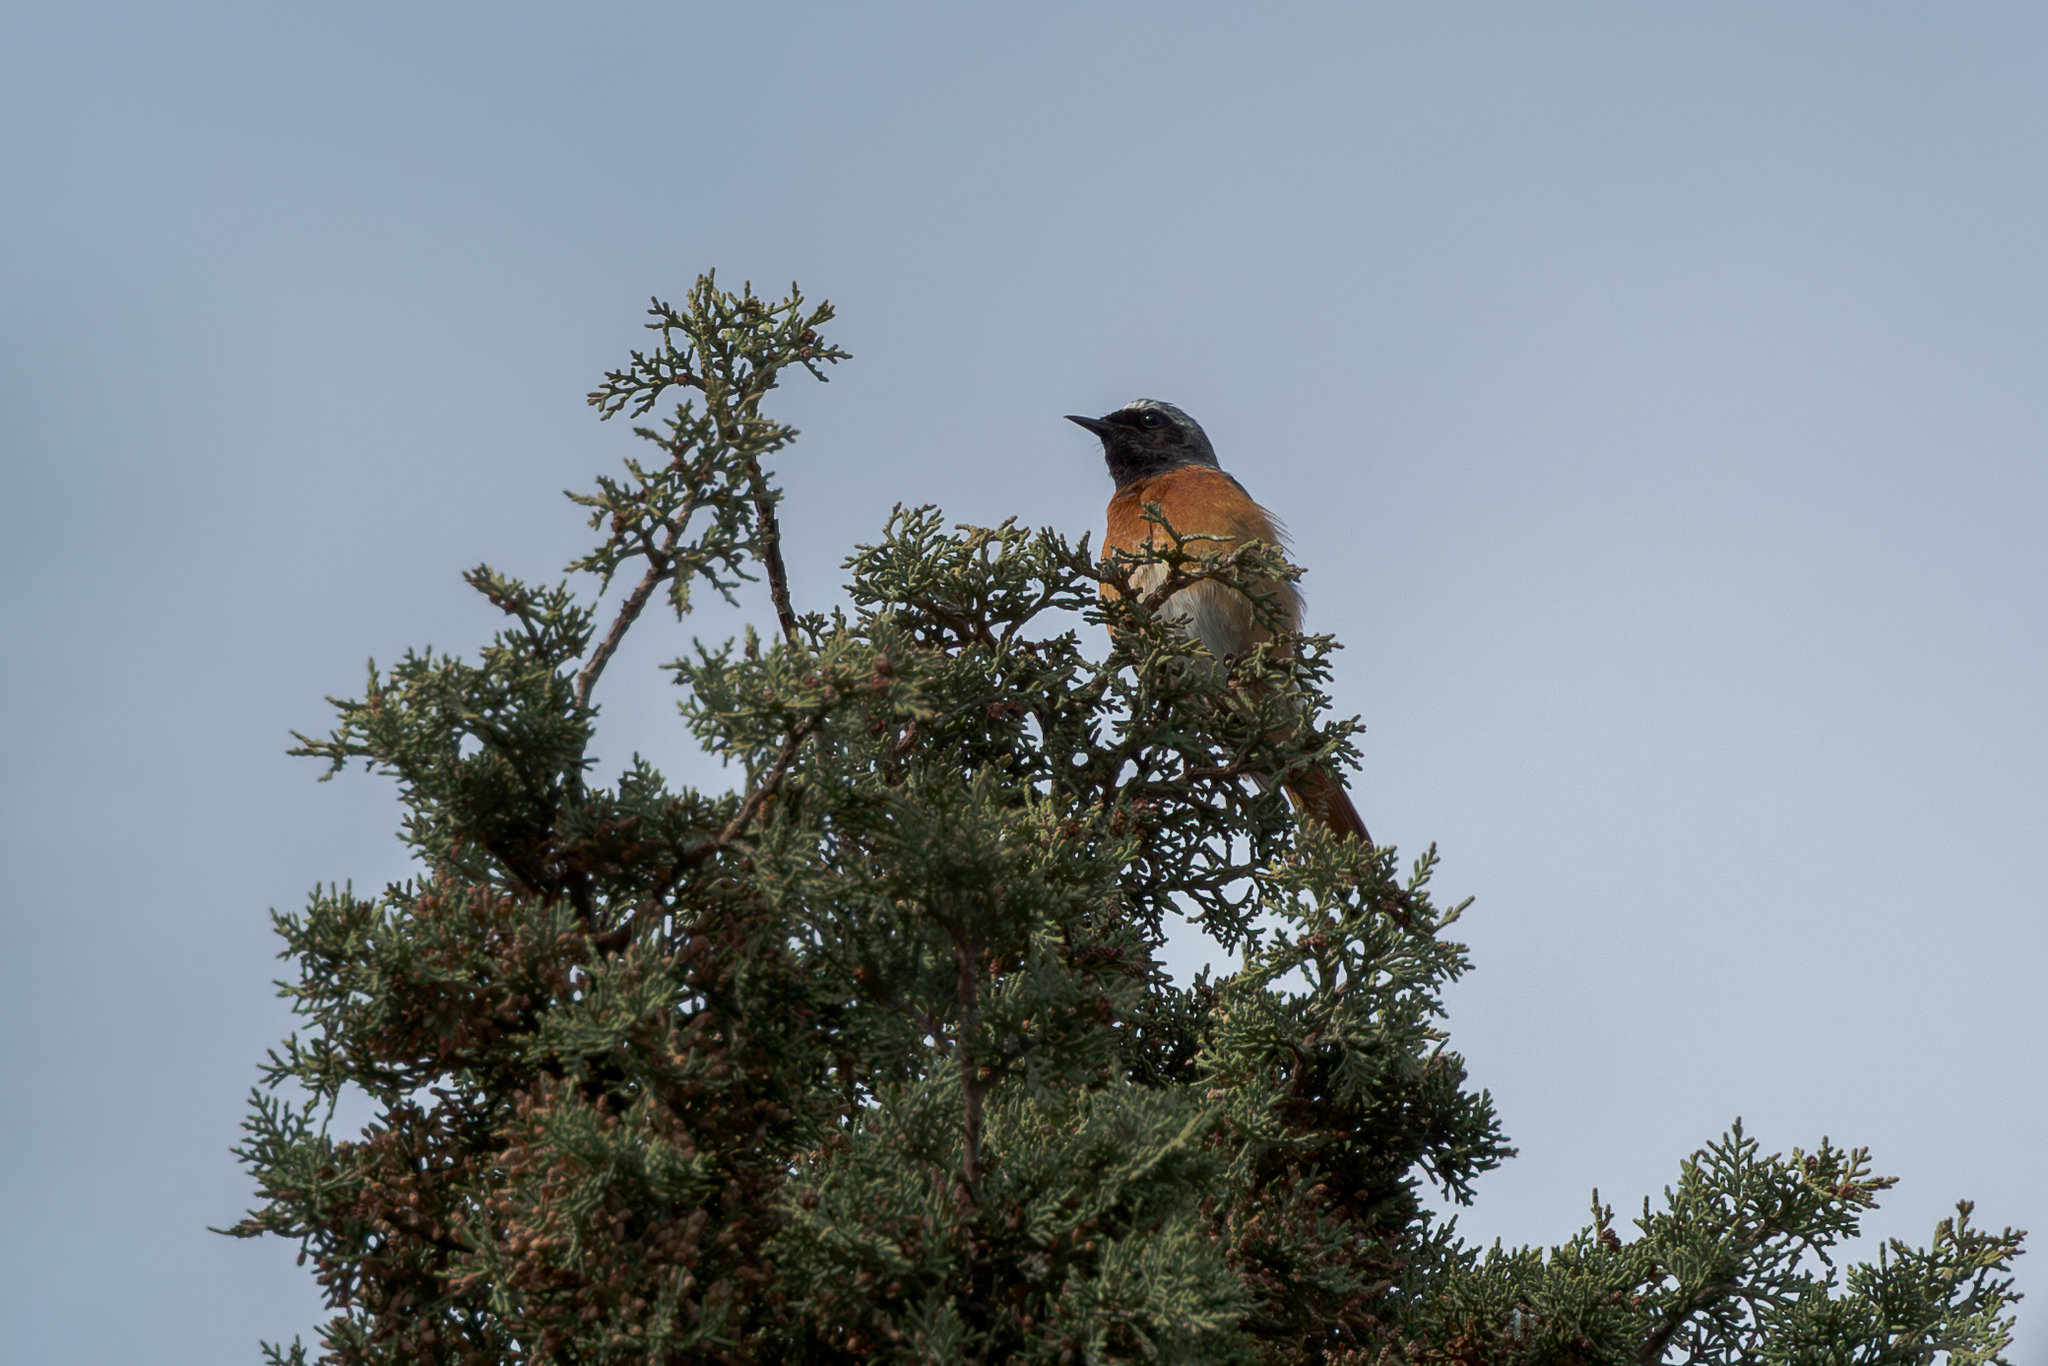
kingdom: Animalia
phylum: Chordata
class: Aves
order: Passeriformes
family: Muscicapidae
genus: Phoenicurus
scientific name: Phoenicurus phoenicurus
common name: Common redstart
